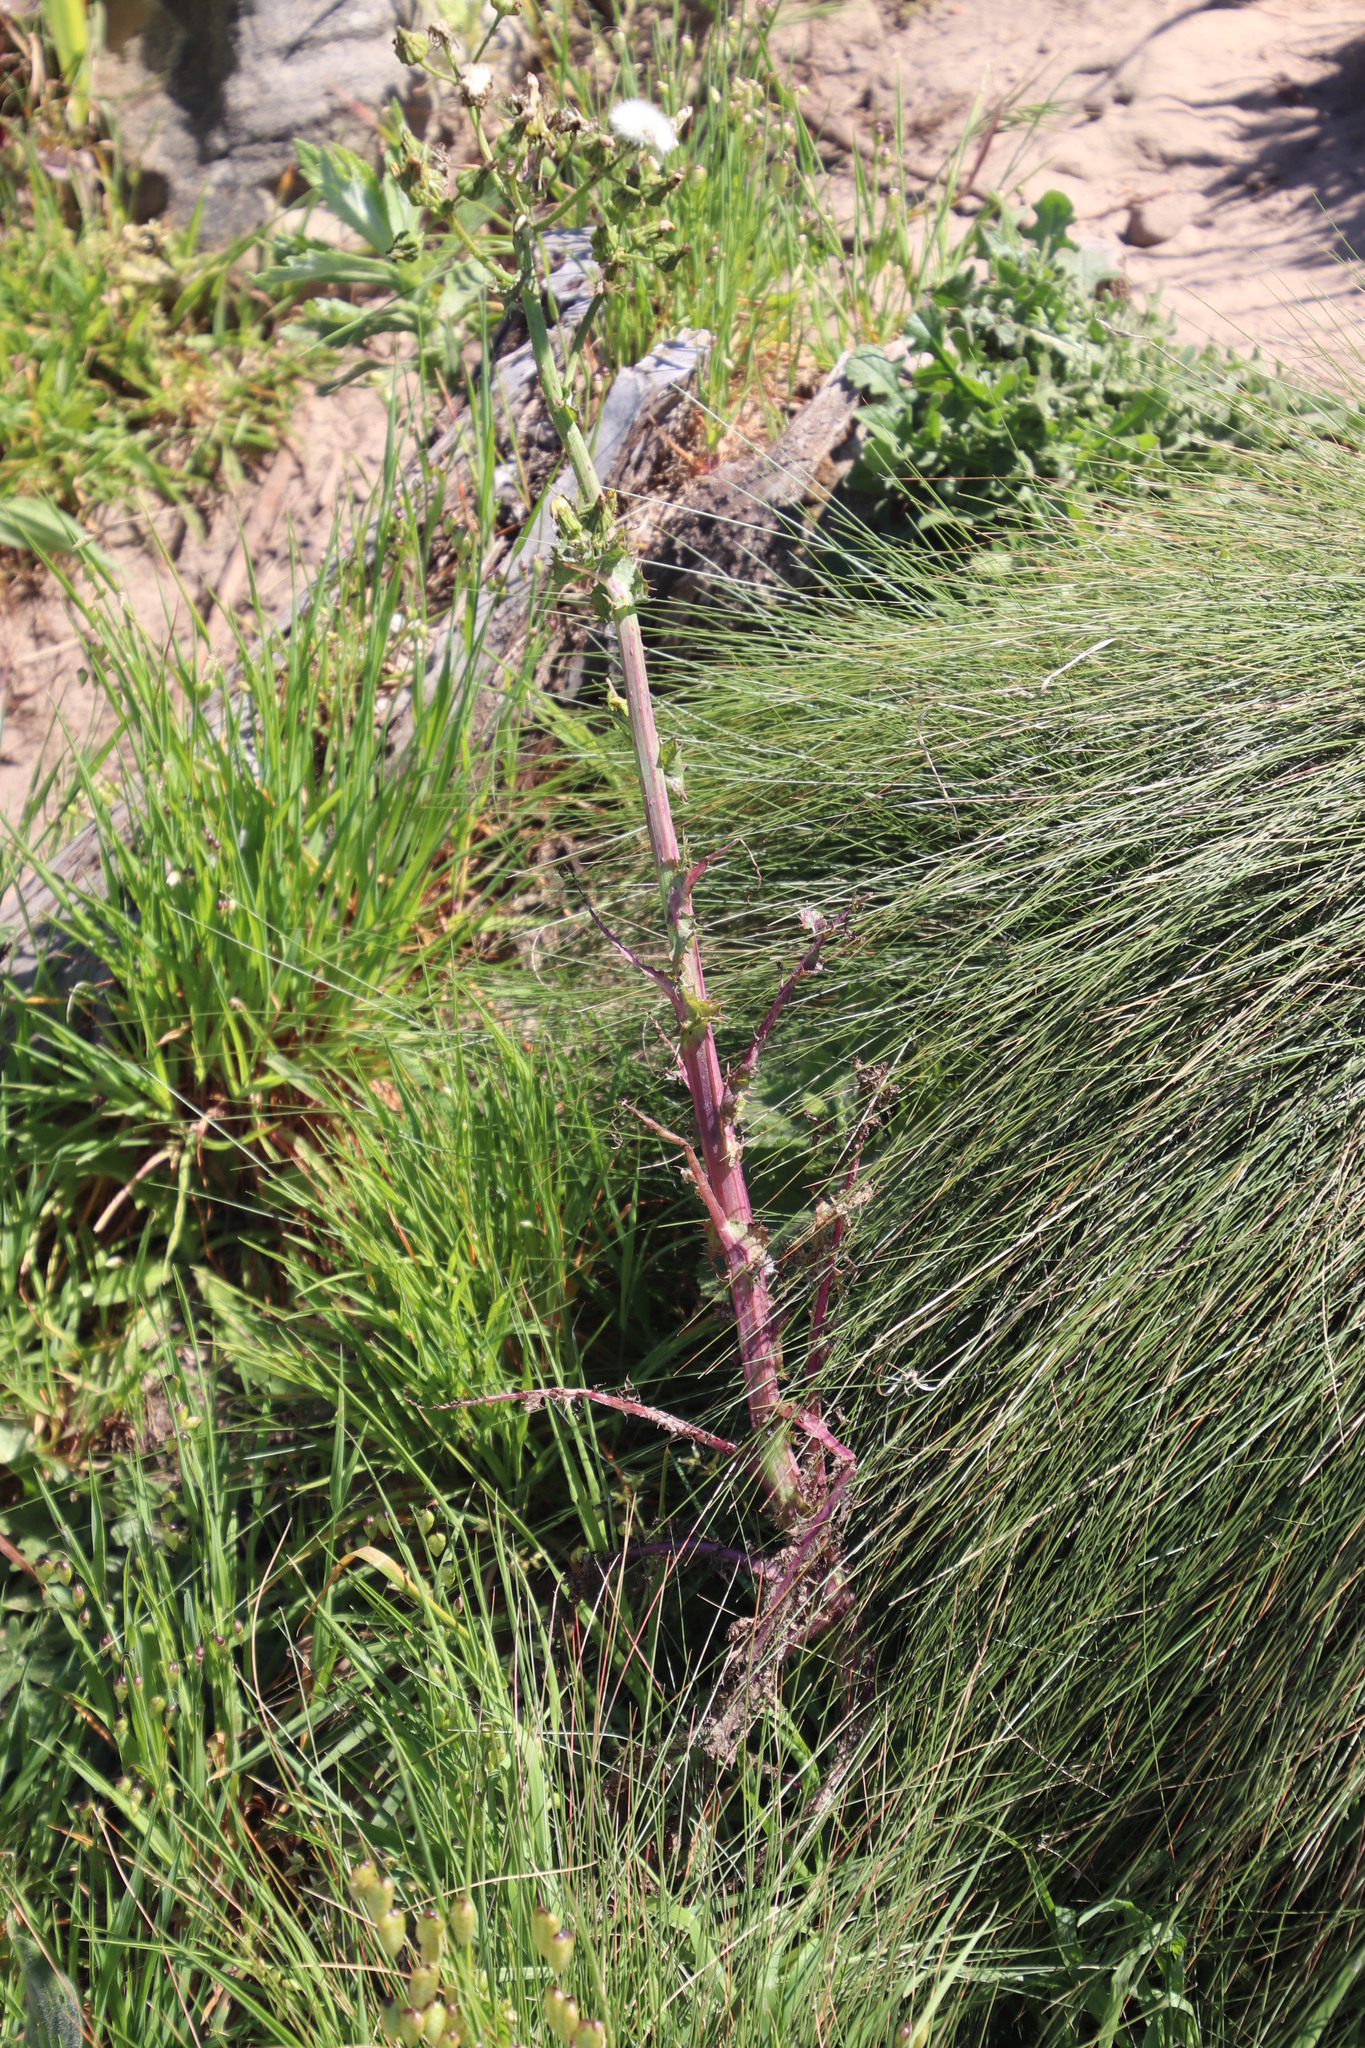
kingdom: Plantae
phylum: Tracheophyta
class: Magnoliopsida
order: Asterales
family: Asteraceae
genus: Sonchus
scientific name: Sonchus asper
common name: Prickly sow-thistle
